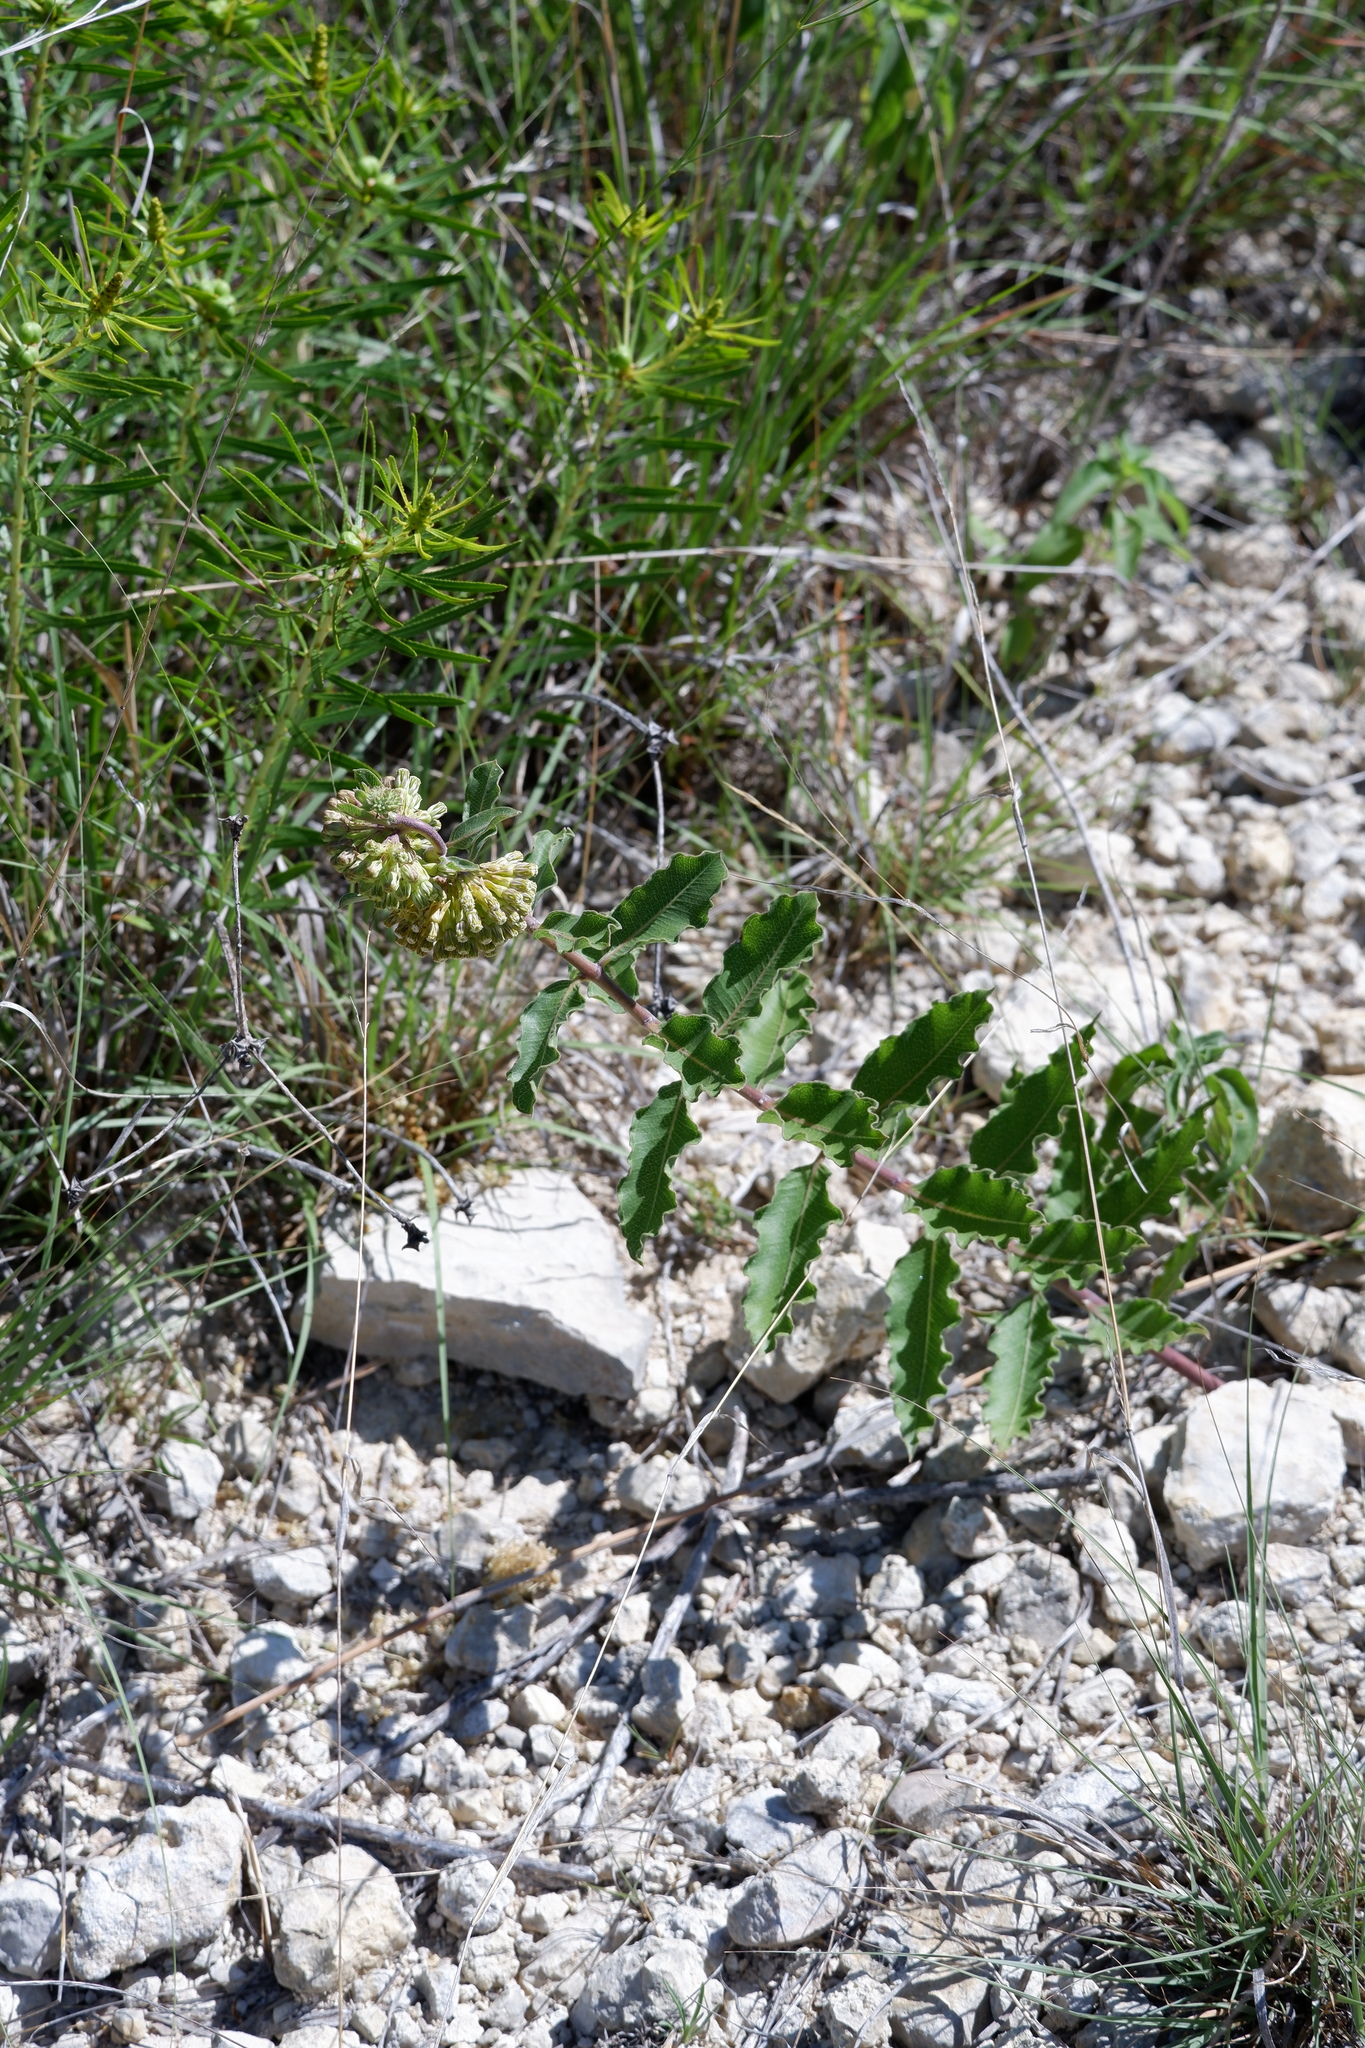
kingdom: Plantae
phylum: Tracheophyta
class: Magnoliopsida
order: Gentianales
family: Apocynaceae
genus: Asclepias
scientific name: Asclepias viridiflora
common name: Green comet milkweed
